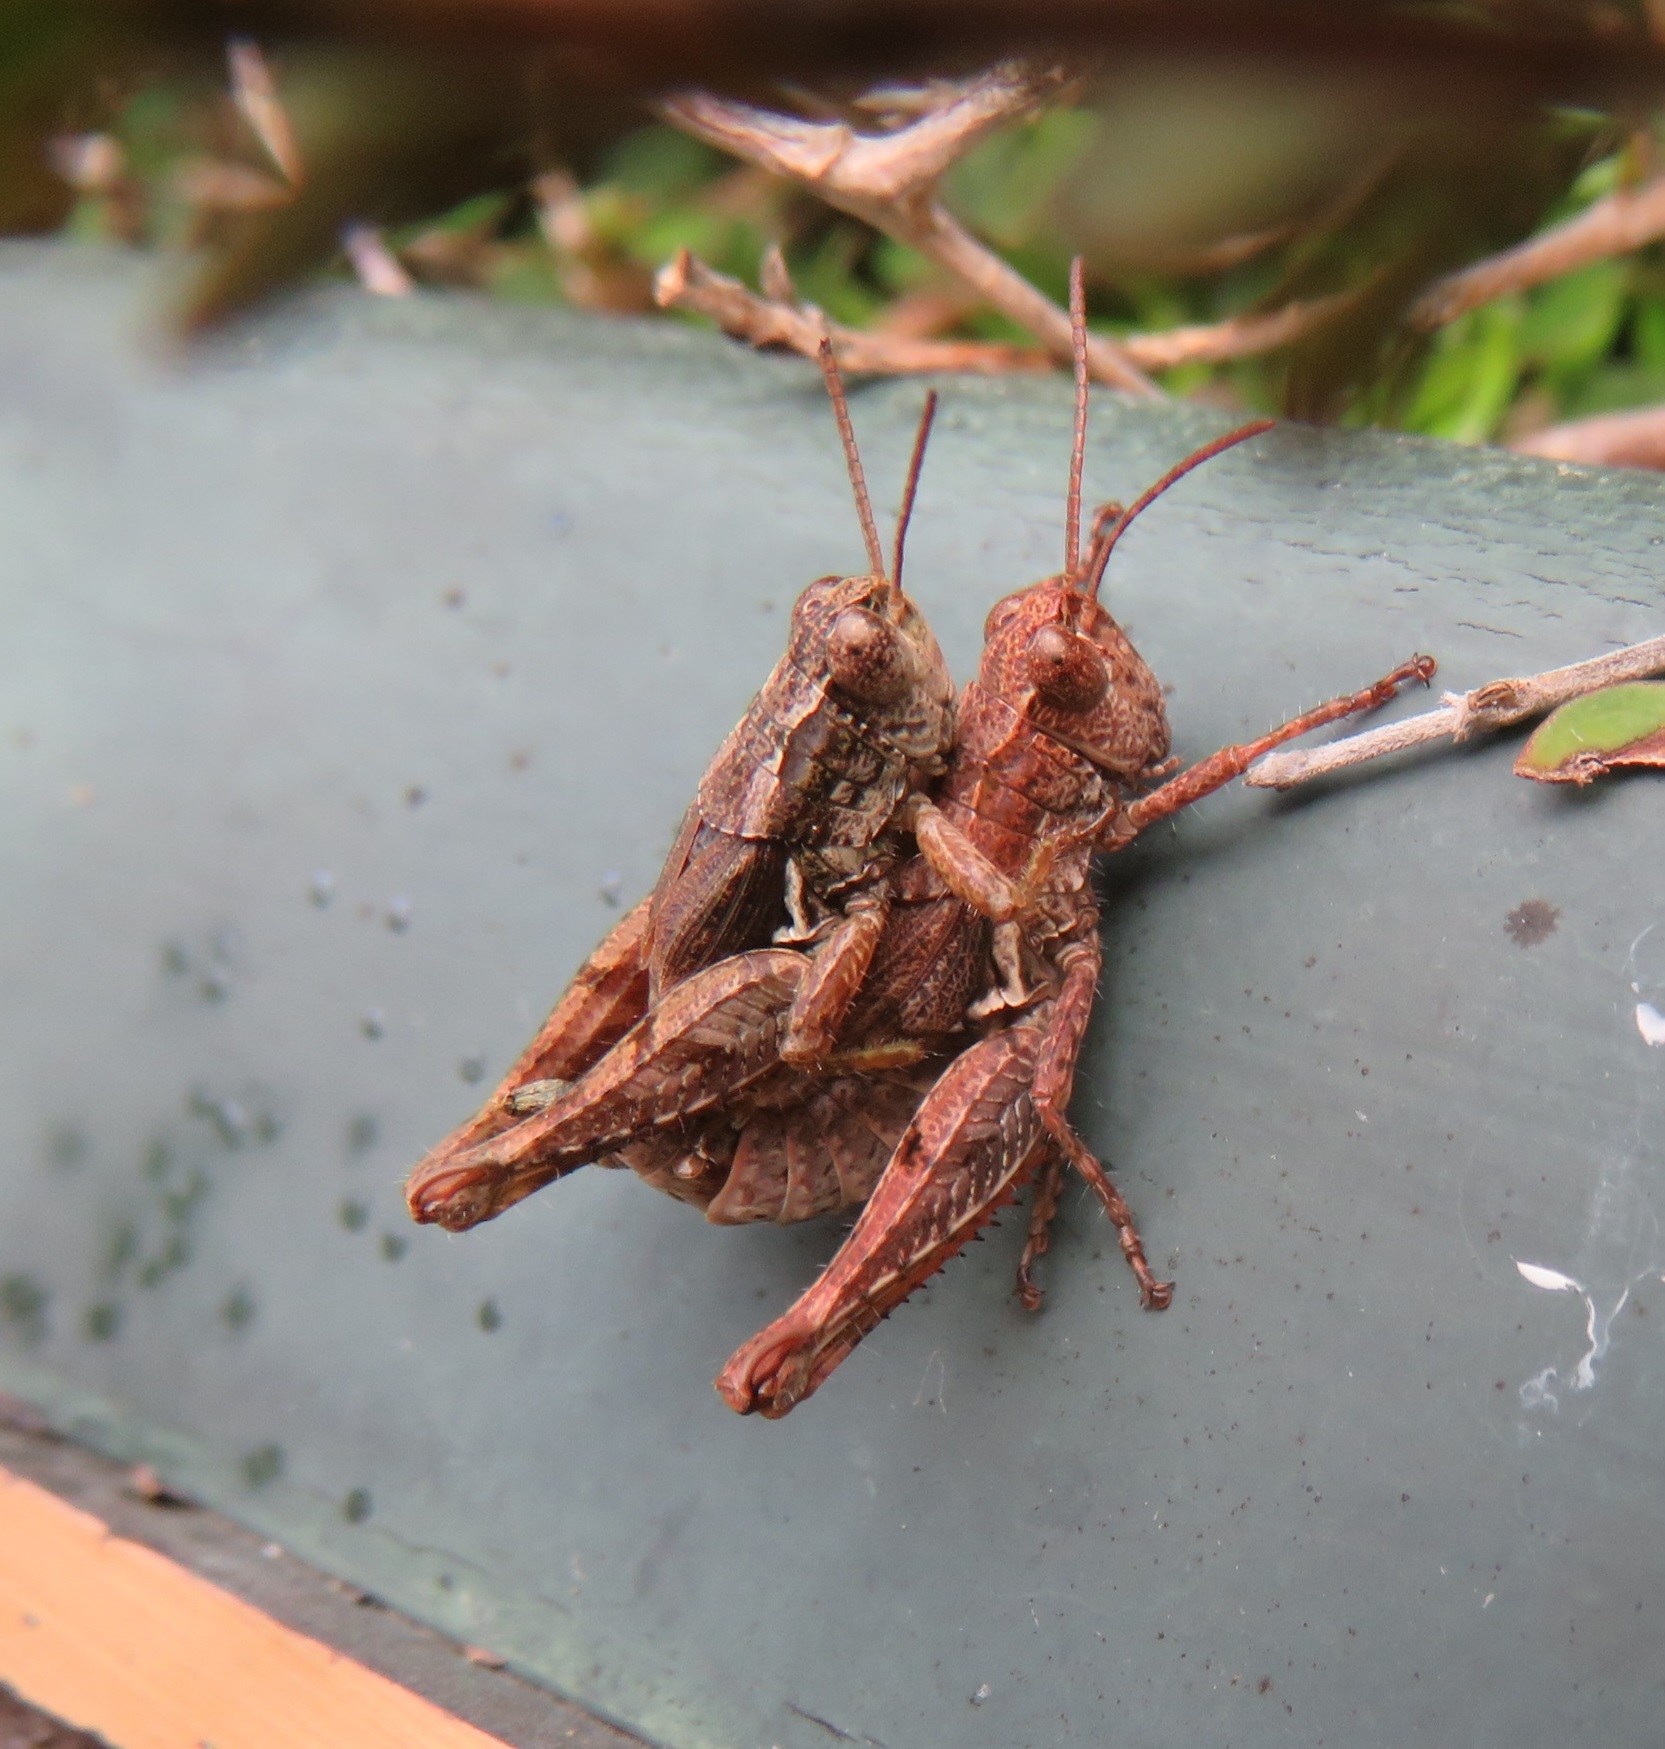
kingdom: Animalia
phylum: Arthropoda
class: Insecta
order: Orthoptera
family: Acrididae
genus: Phaulacridium
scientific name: Phaulacridium marginale
